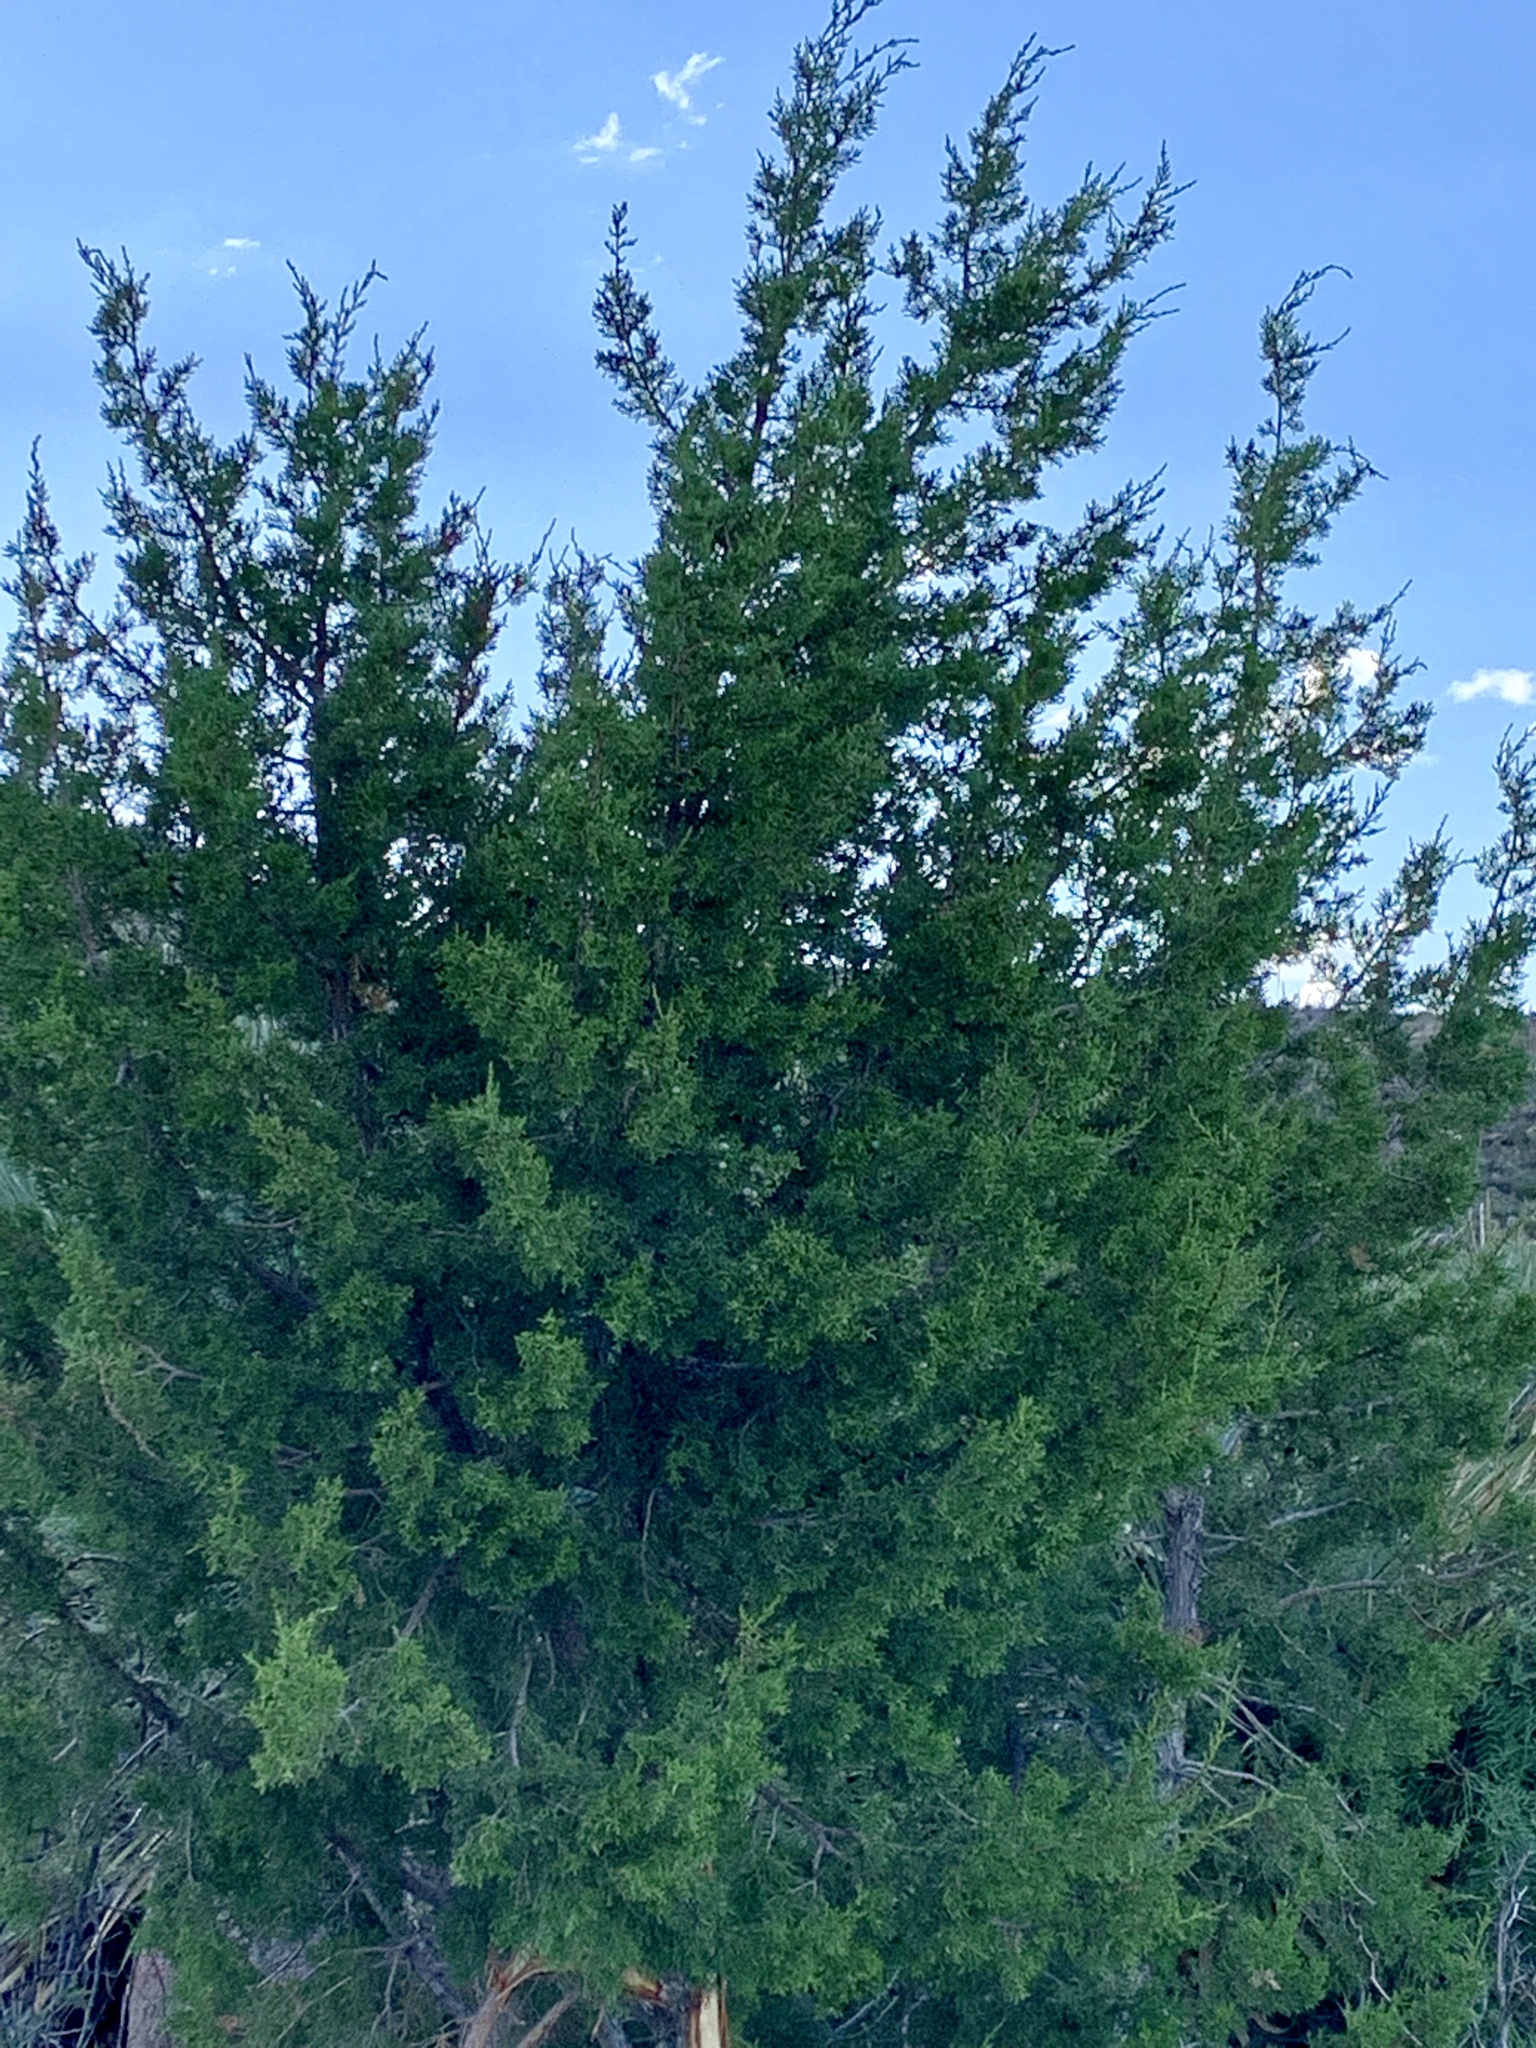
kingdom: Plantae
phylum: Tracheophyta
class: Pinopsida
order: Pinales
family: Cupressaceae
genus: Juniperus
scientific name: Juniperus monosperma
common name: One-seed juniper
